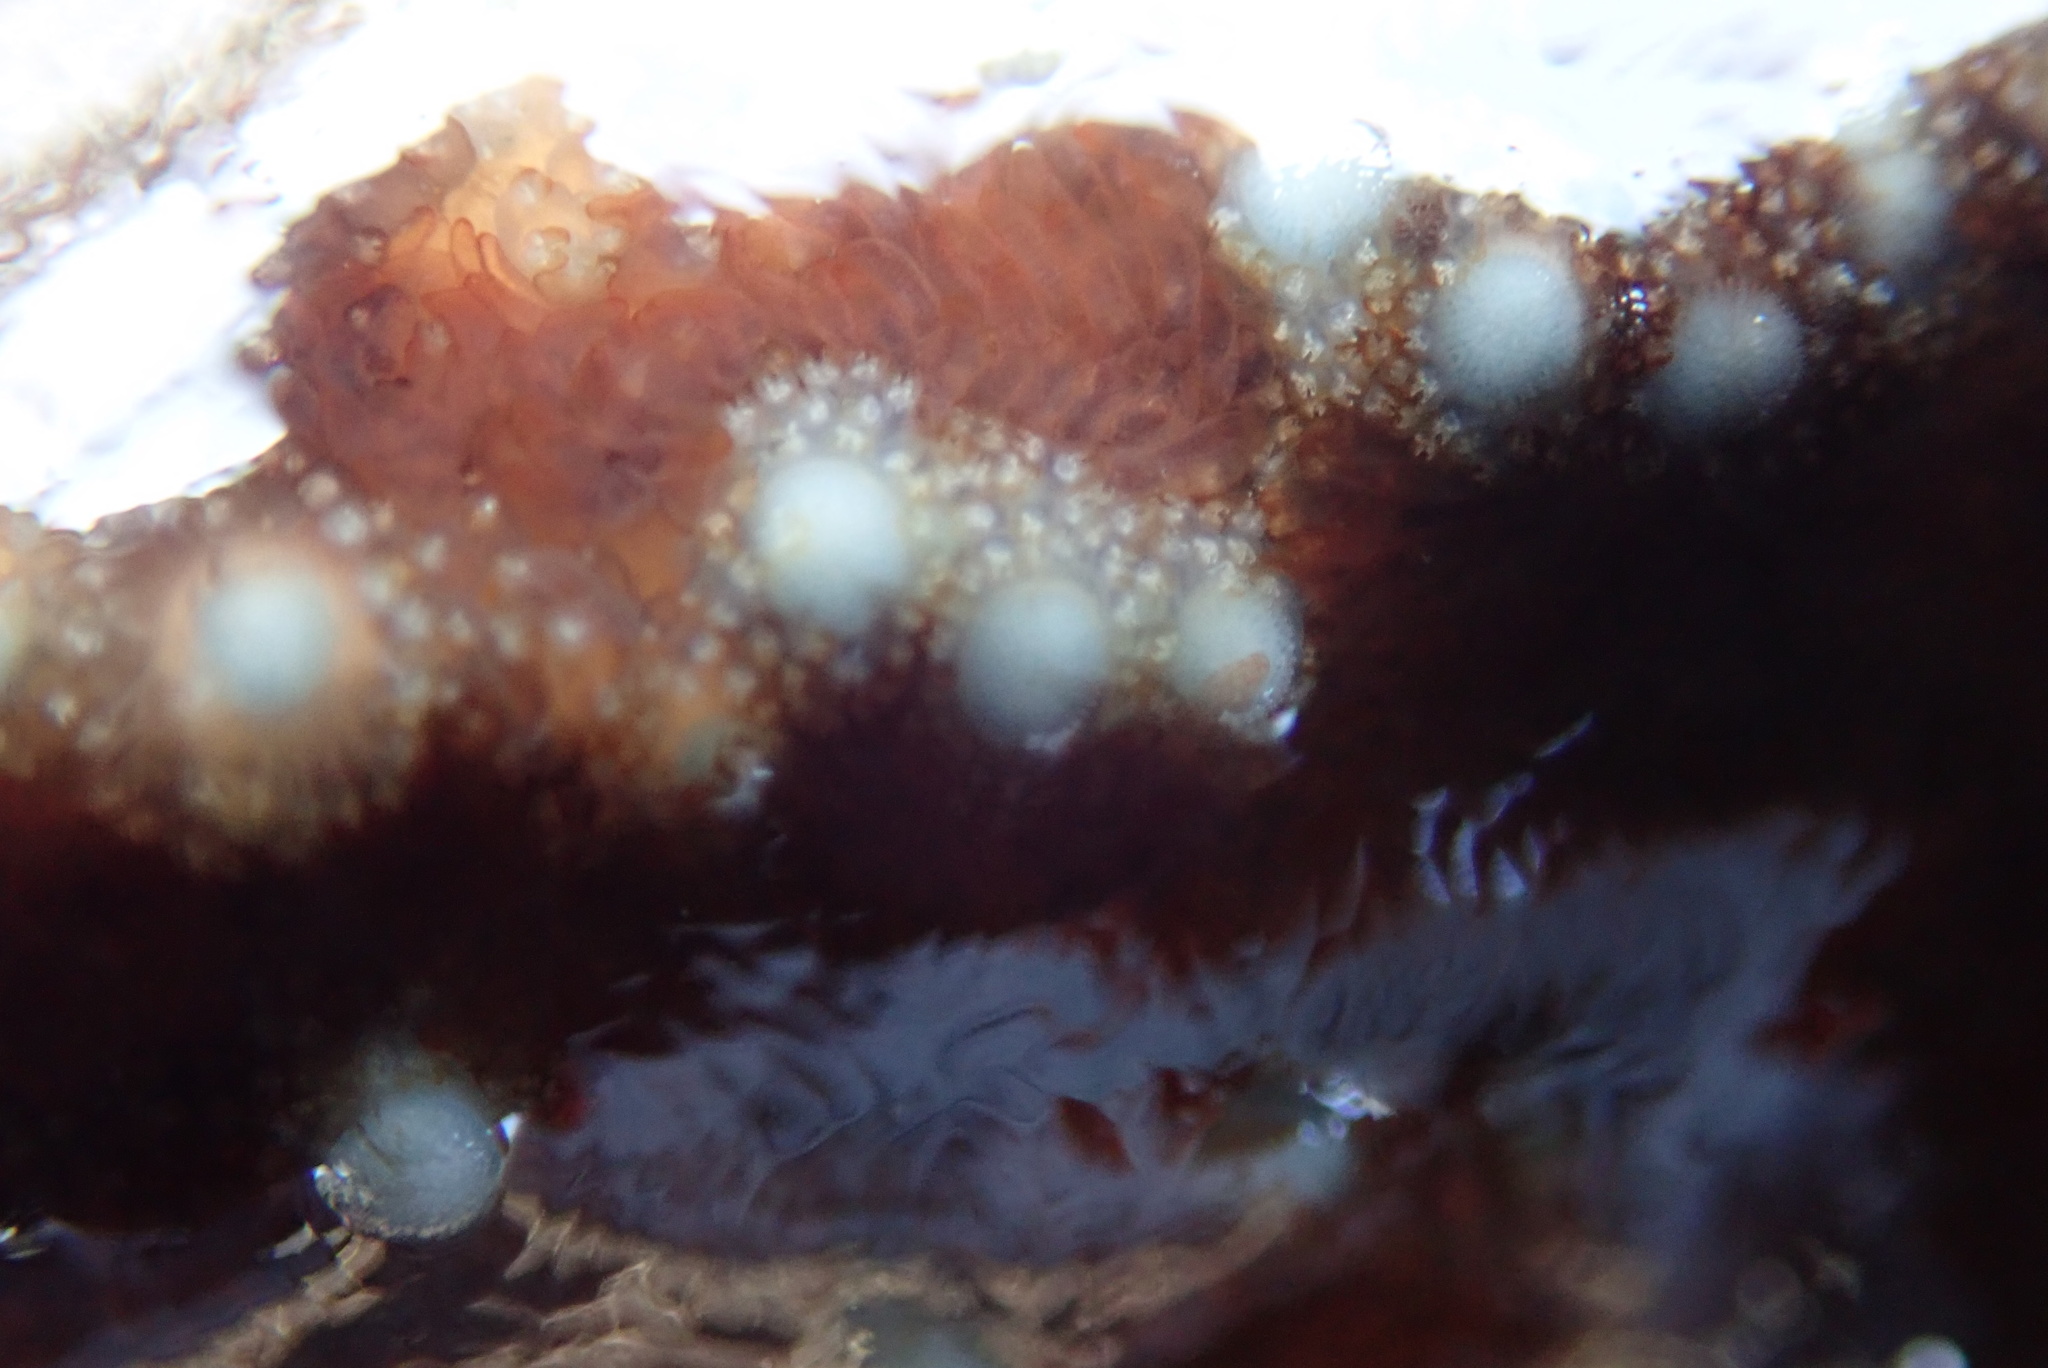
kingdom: Animalia
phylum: Echinodermata
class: Asteroidea
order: Forcipulatida
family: Asteriidae
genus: Evasterias
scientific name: Evasterias troschelii
